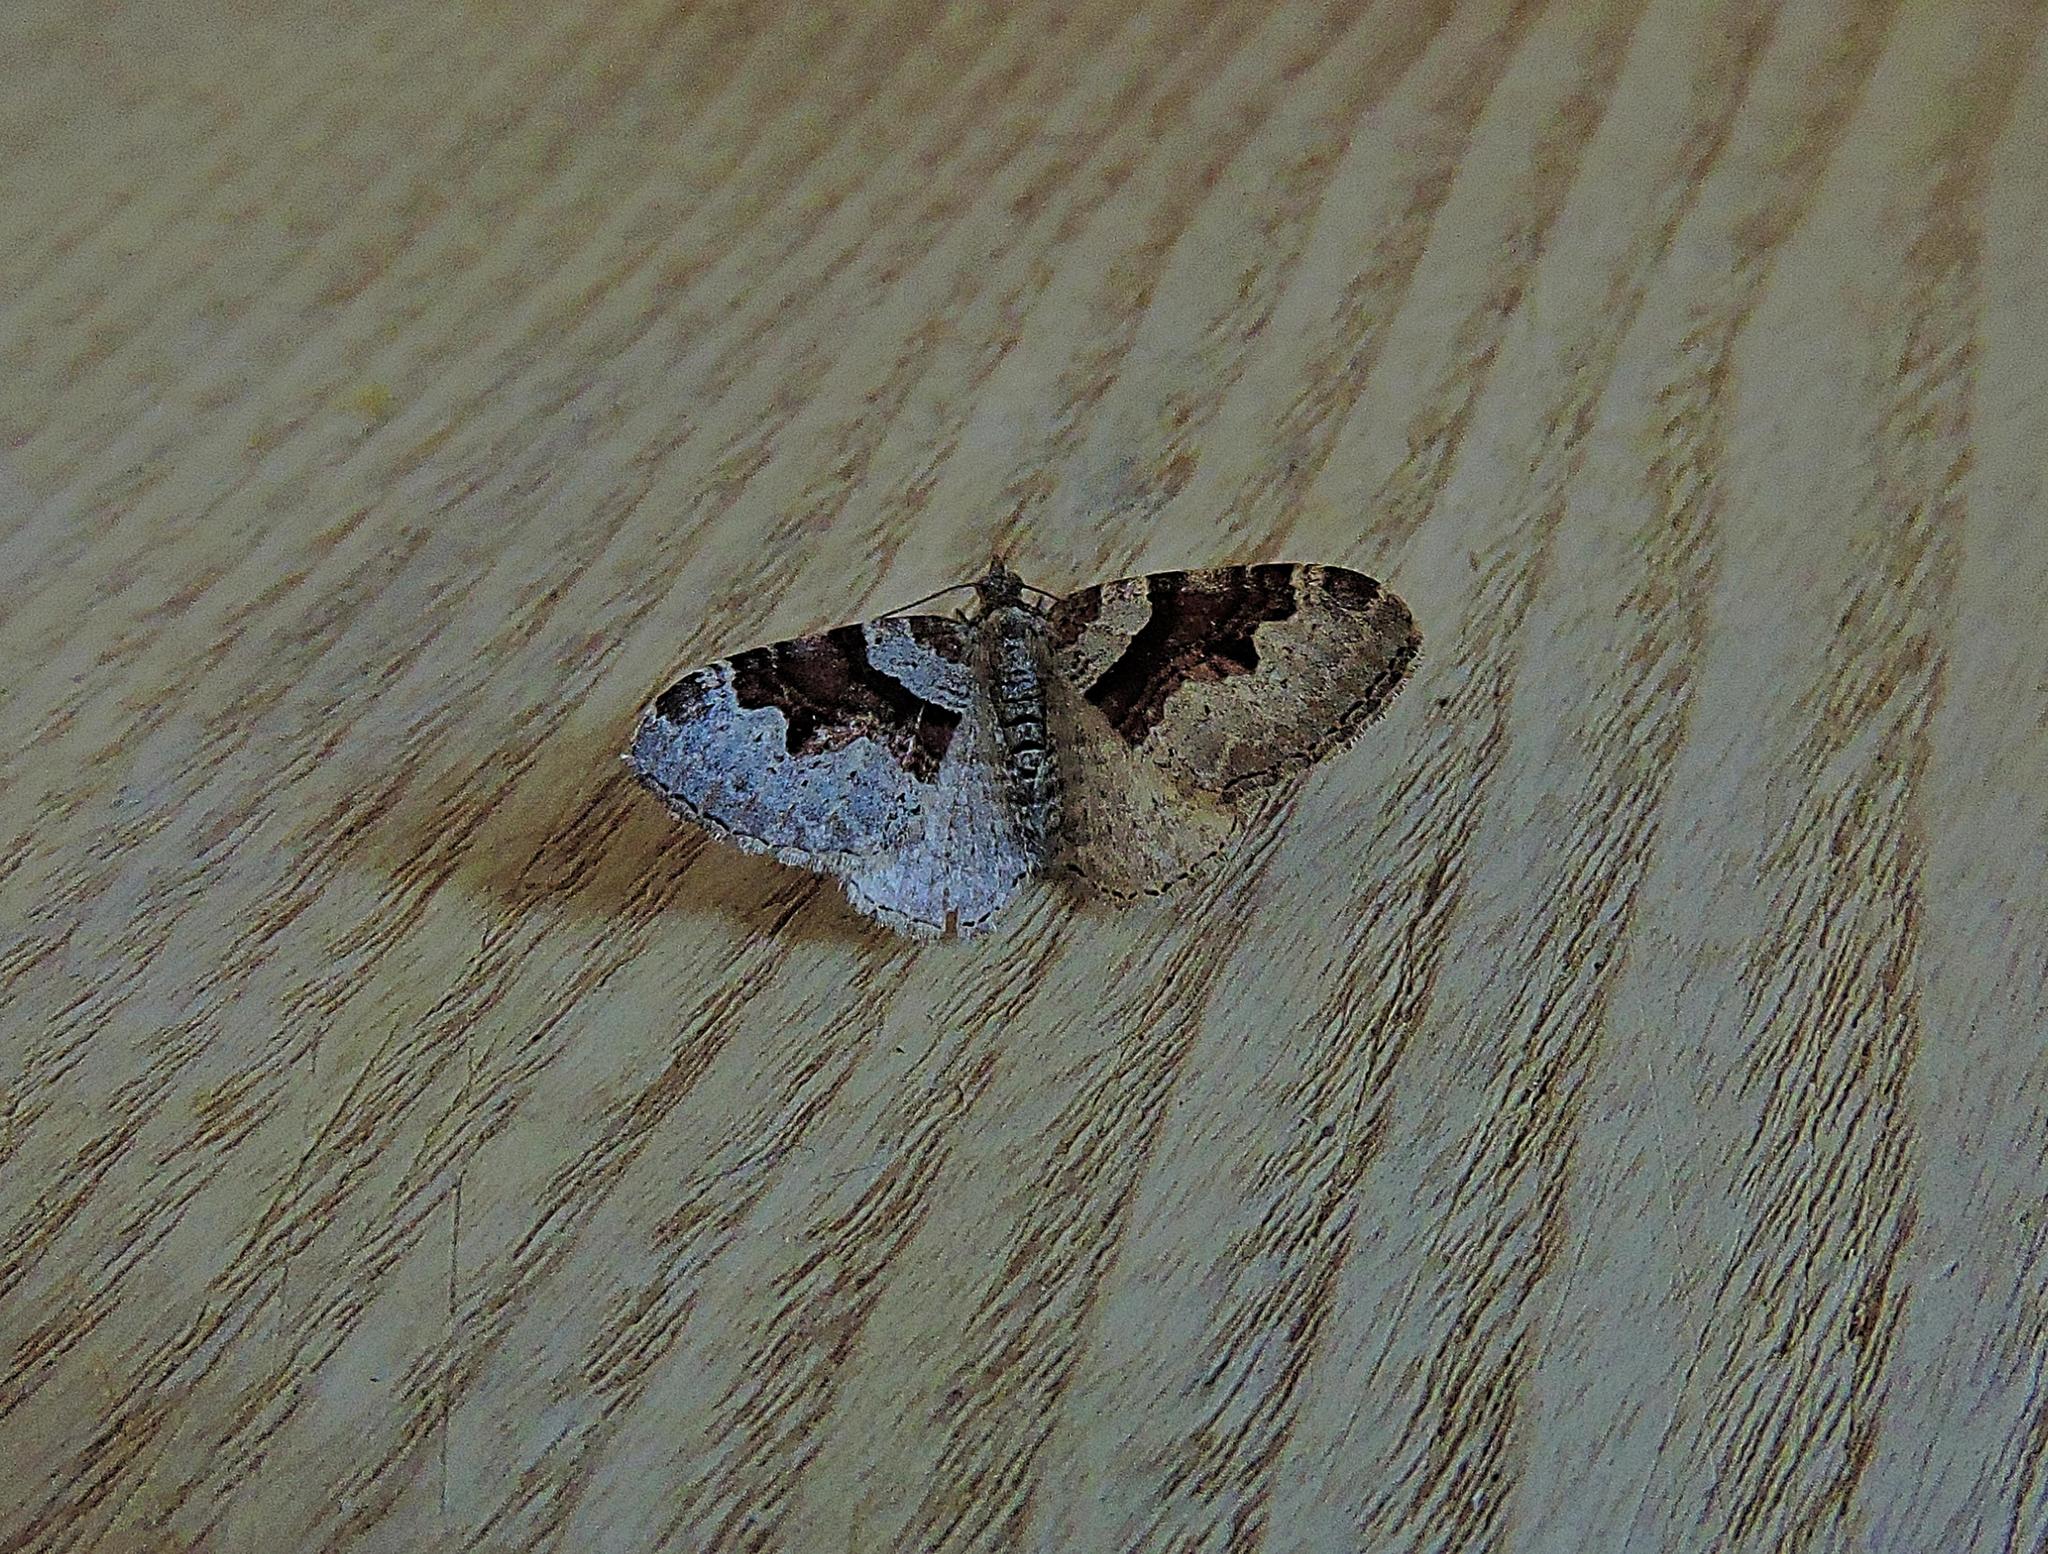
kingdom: Animalia
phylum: Arthropoda
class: Insecta
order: Lepidoptera
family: Geometridae
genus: Xanthorhoe
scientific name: Xanthorhoe designata
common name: Flame carpet
